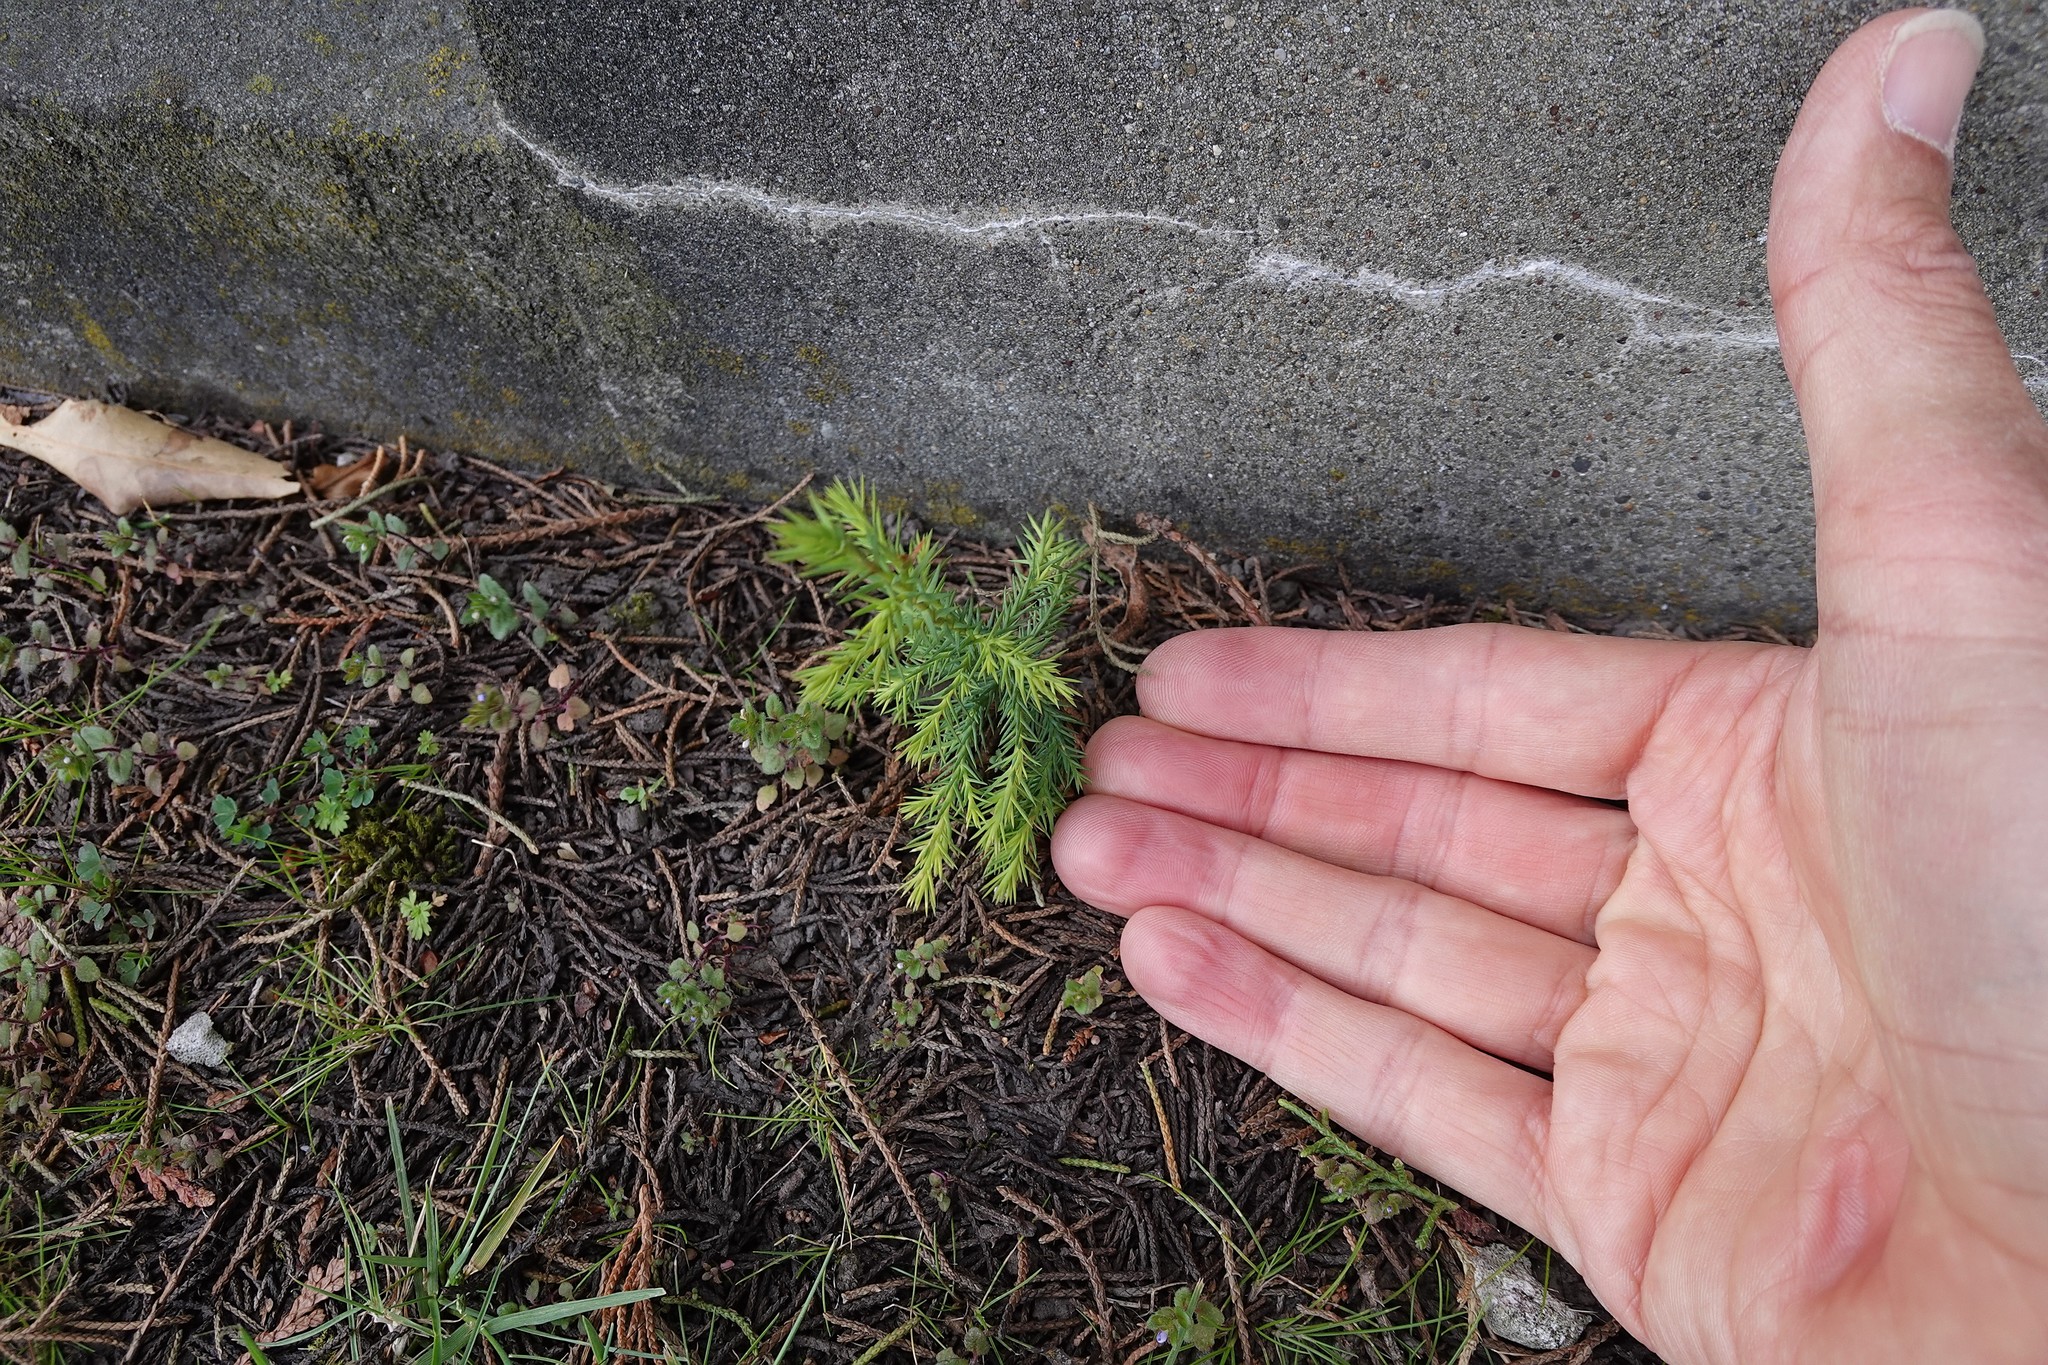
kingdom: Plantae
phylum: Tracheophyta
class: Pinopsida
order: Pinales
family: Cupressaceae
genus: Cupressus
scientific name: Cupressus macrocarpa
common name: Monterey cypress
